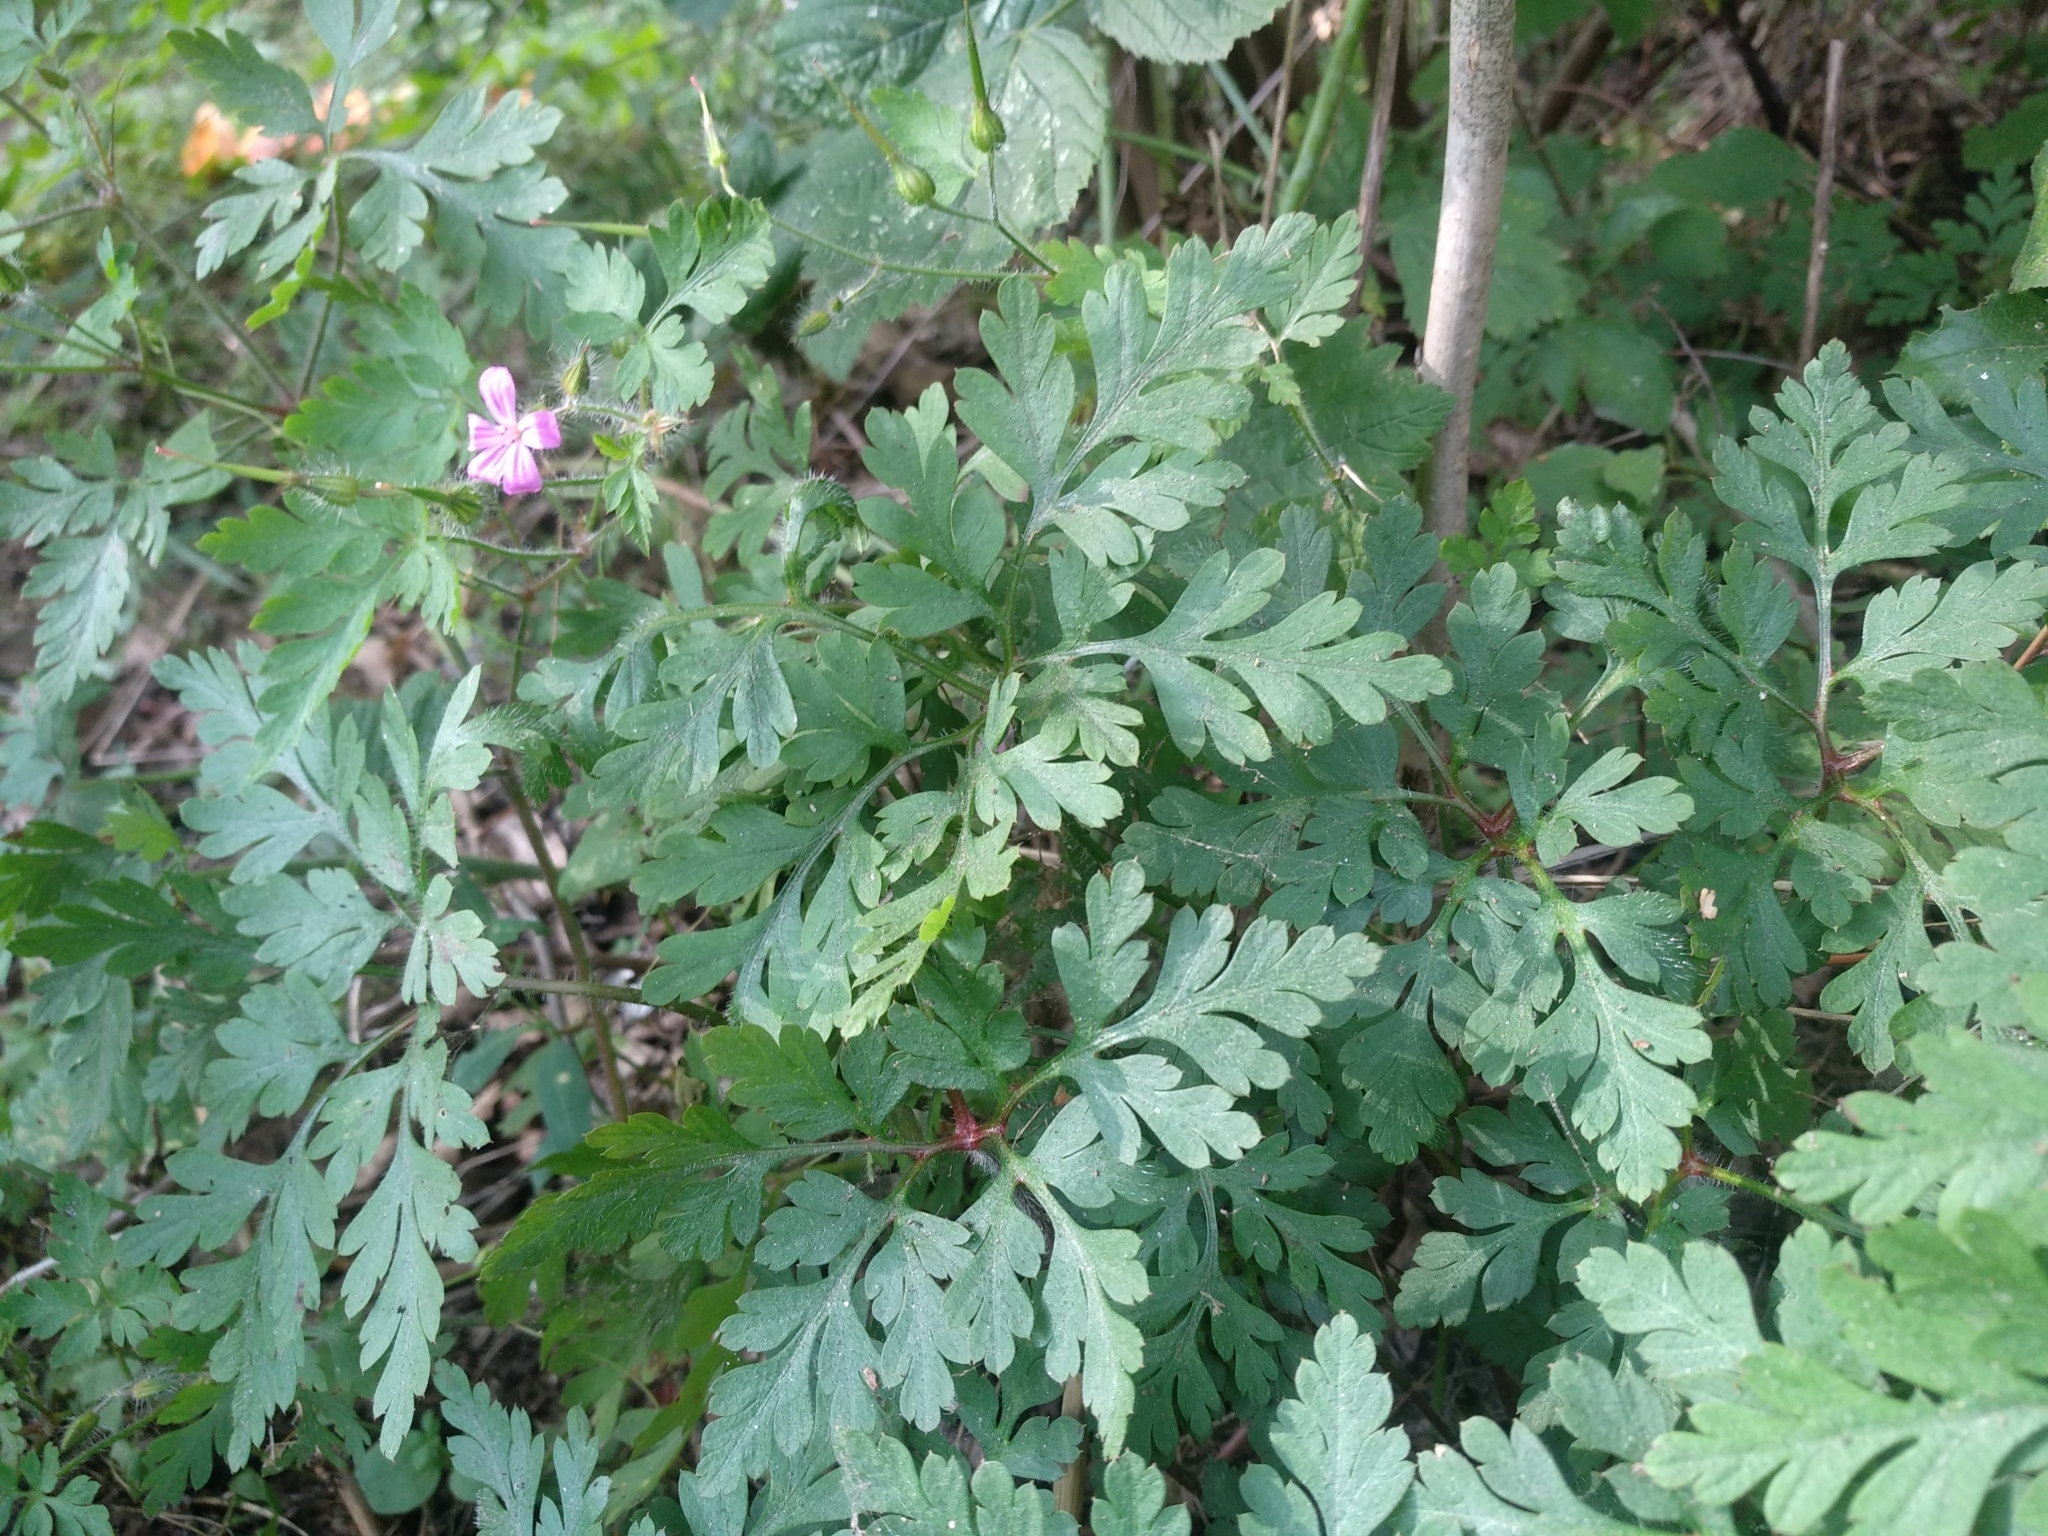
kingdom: Plantae
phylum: Tracheophyta
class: Magnoliopsida
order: Geraniales
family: Geraniaceae
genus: Geranium
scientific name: Geranium robertianum
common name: Herb-robert
